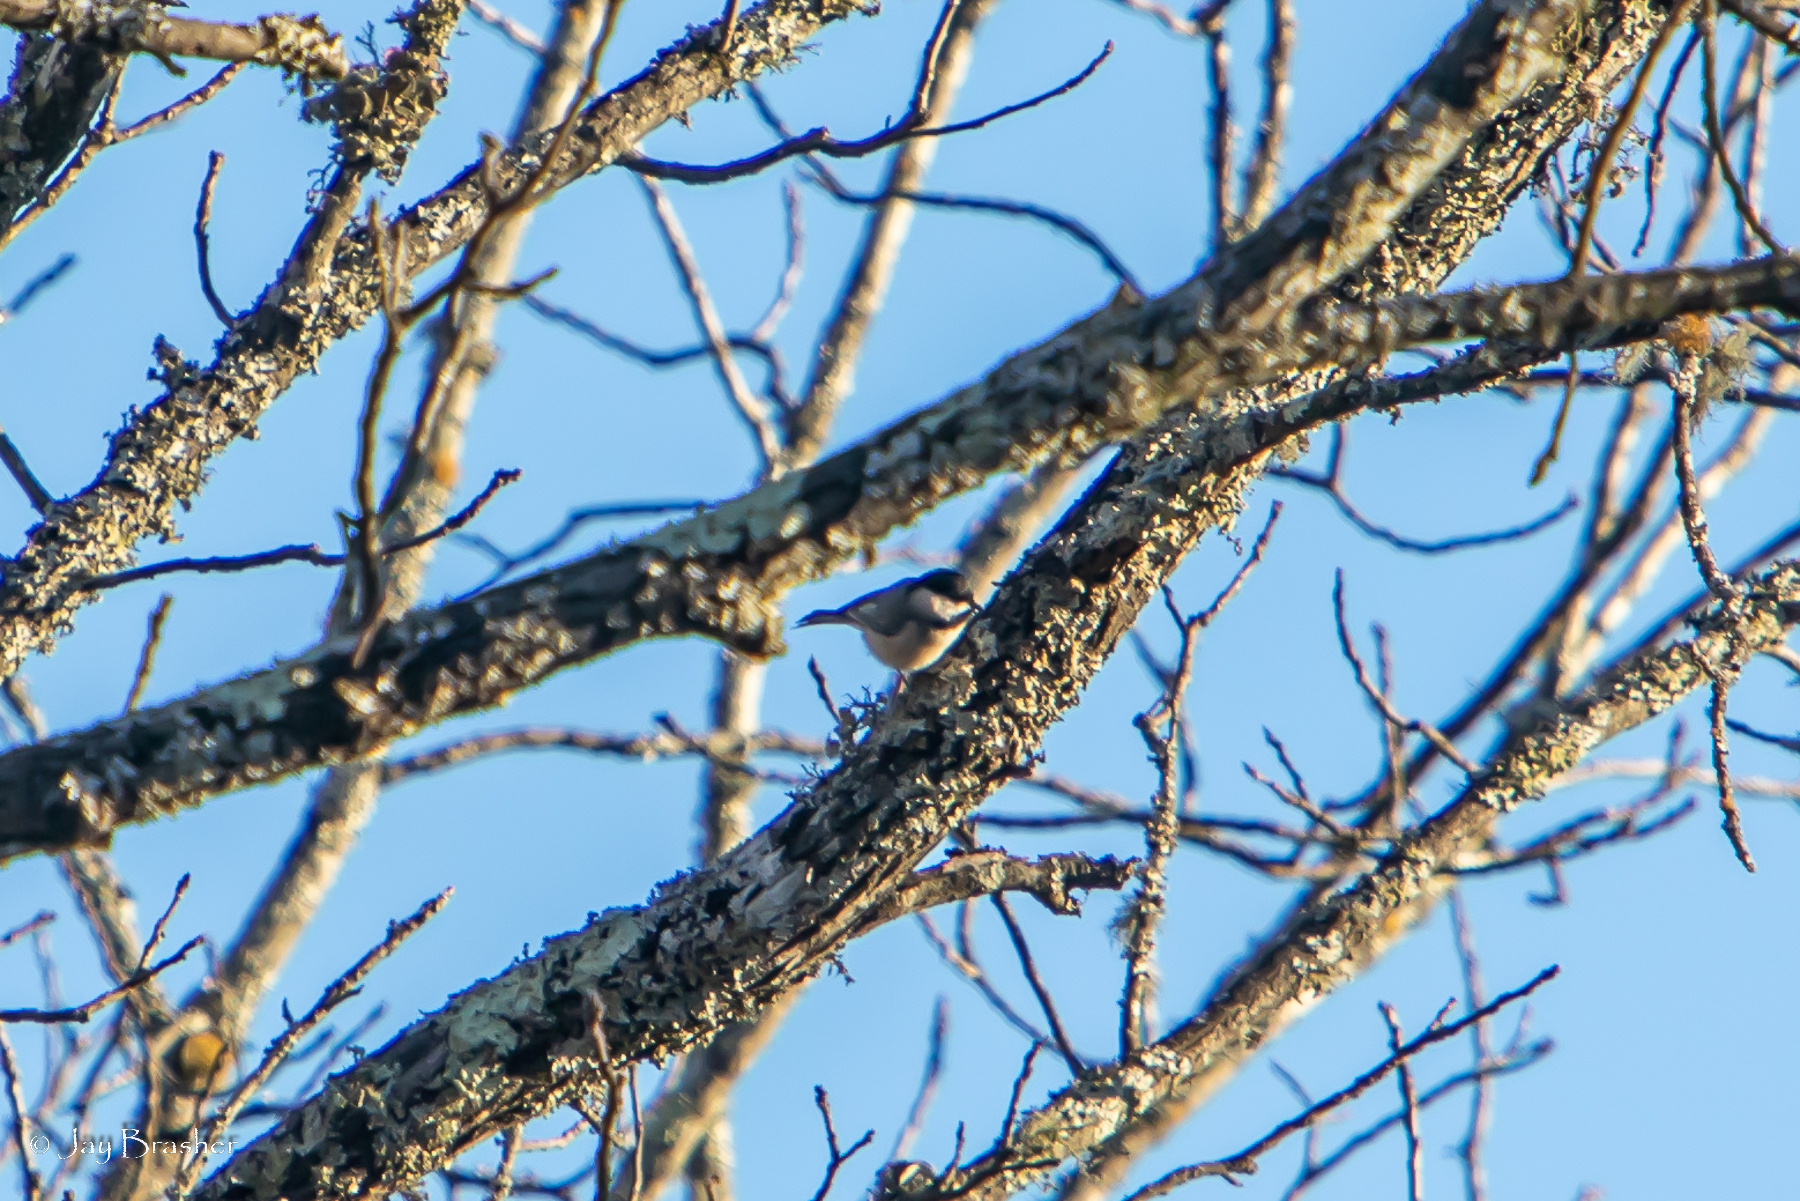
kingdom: Animalia
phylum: Chordata
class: Aves
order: Passeriformes
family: Paridae
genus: Poecile
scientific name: Poecile carolinensis
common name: Carolina chickadee
